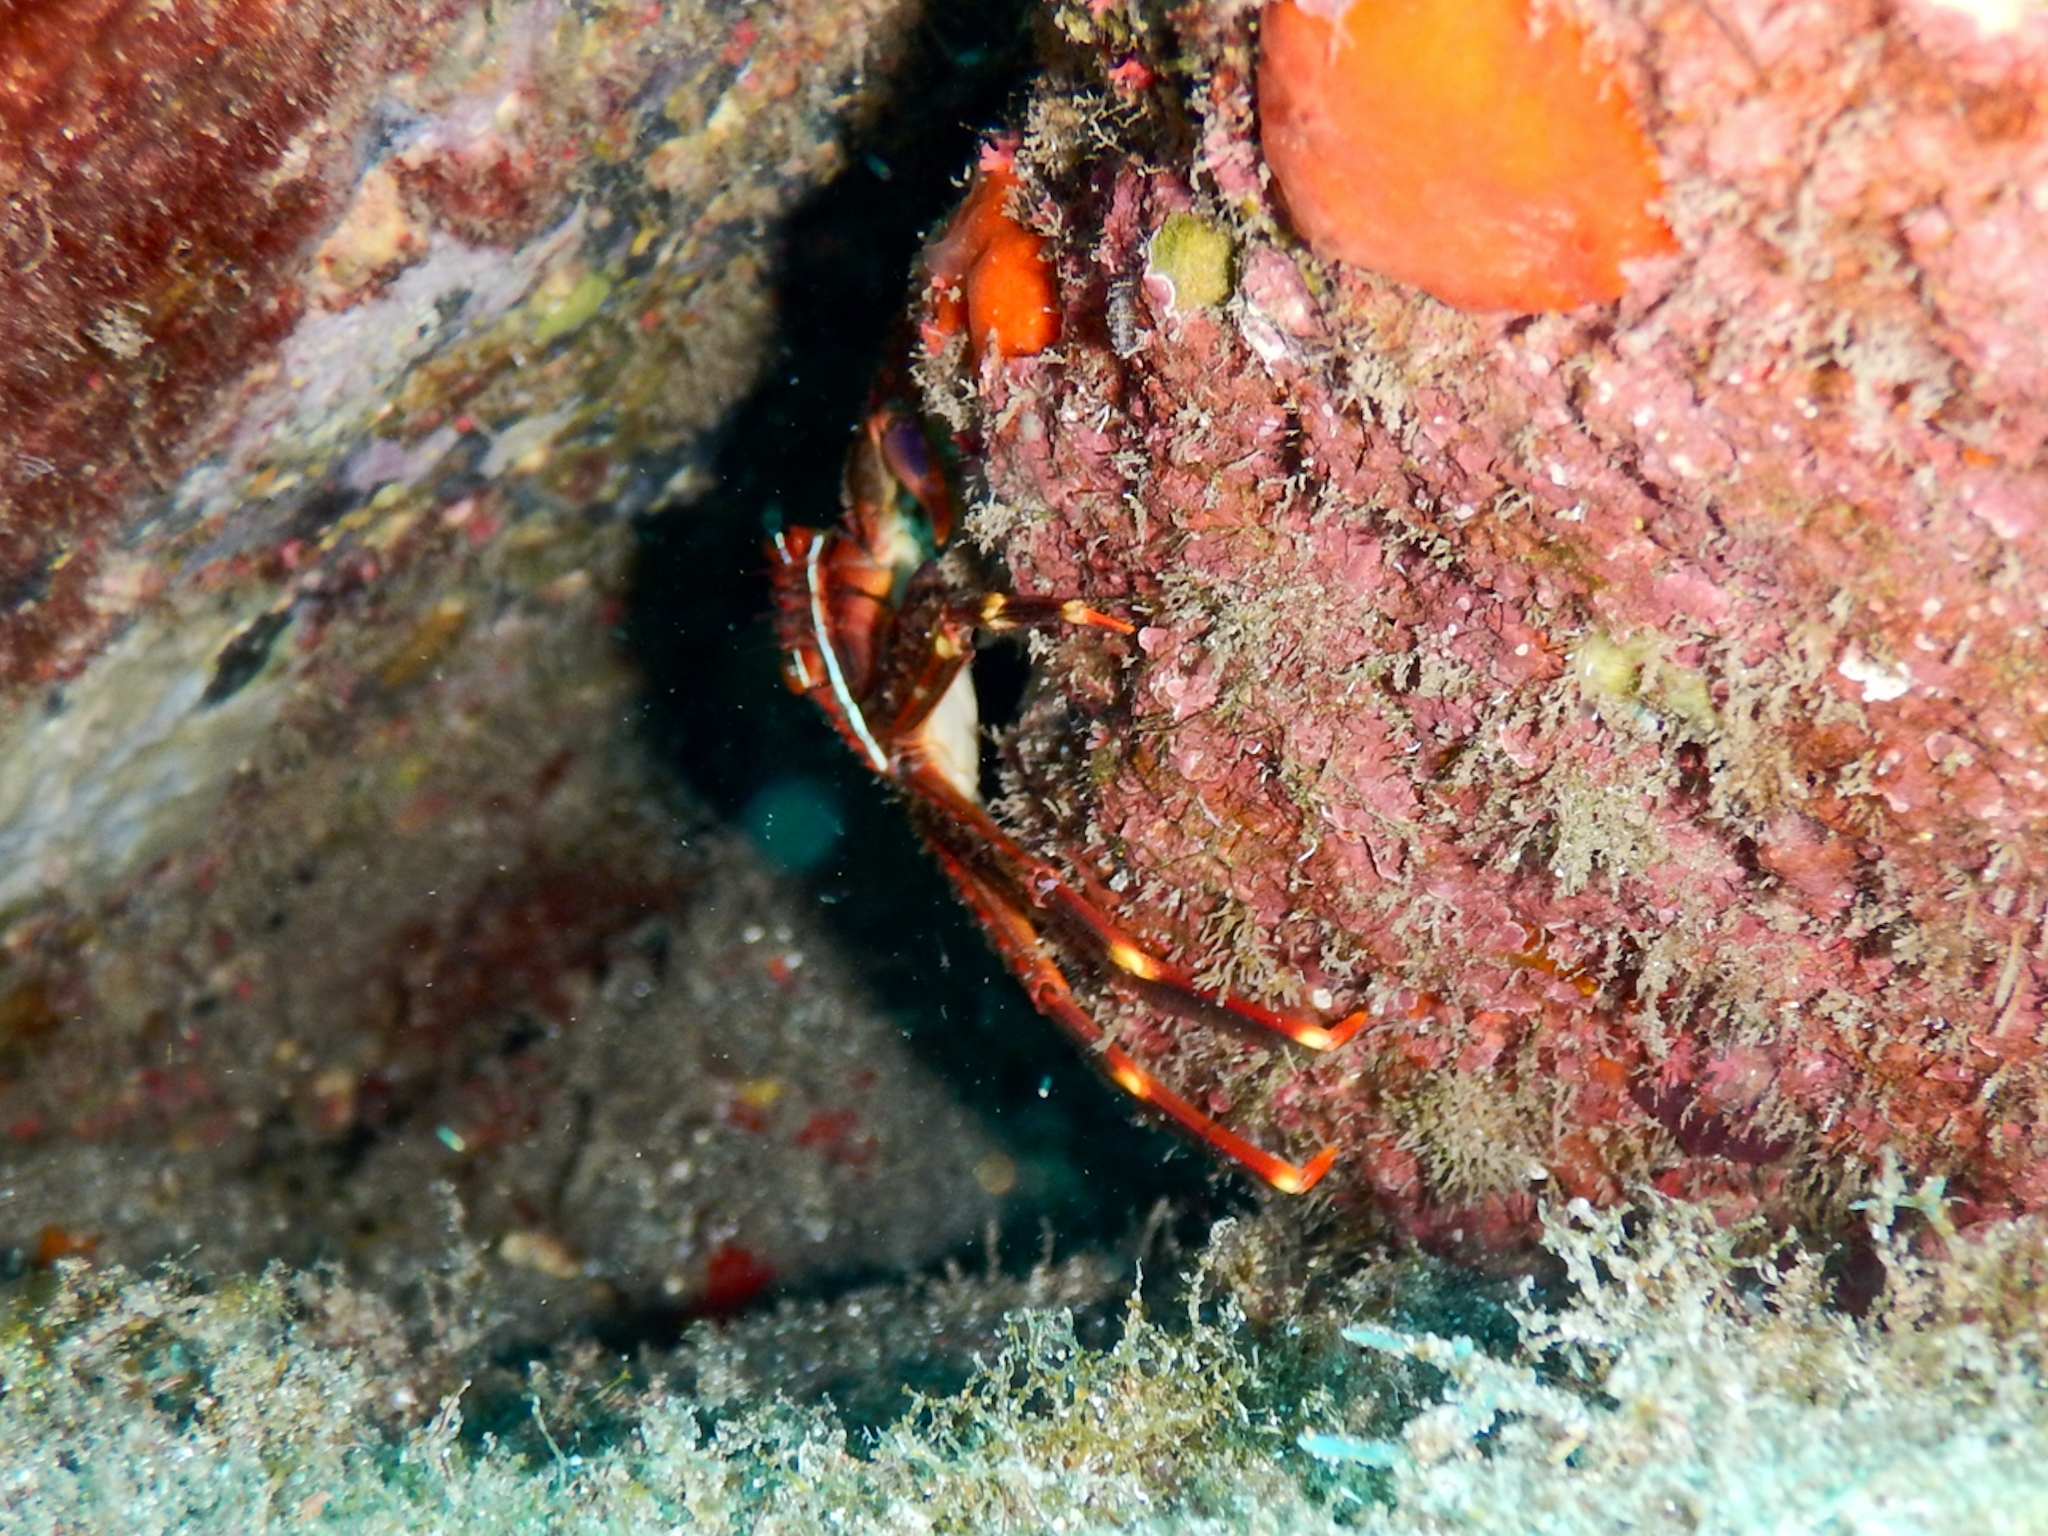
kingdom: Animalia
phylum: Arthropoda
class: Malacostraca
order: Decapoda
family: Percnidae
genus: Percnon
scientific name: Percnon gibbesi
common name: Nimble spray crab
